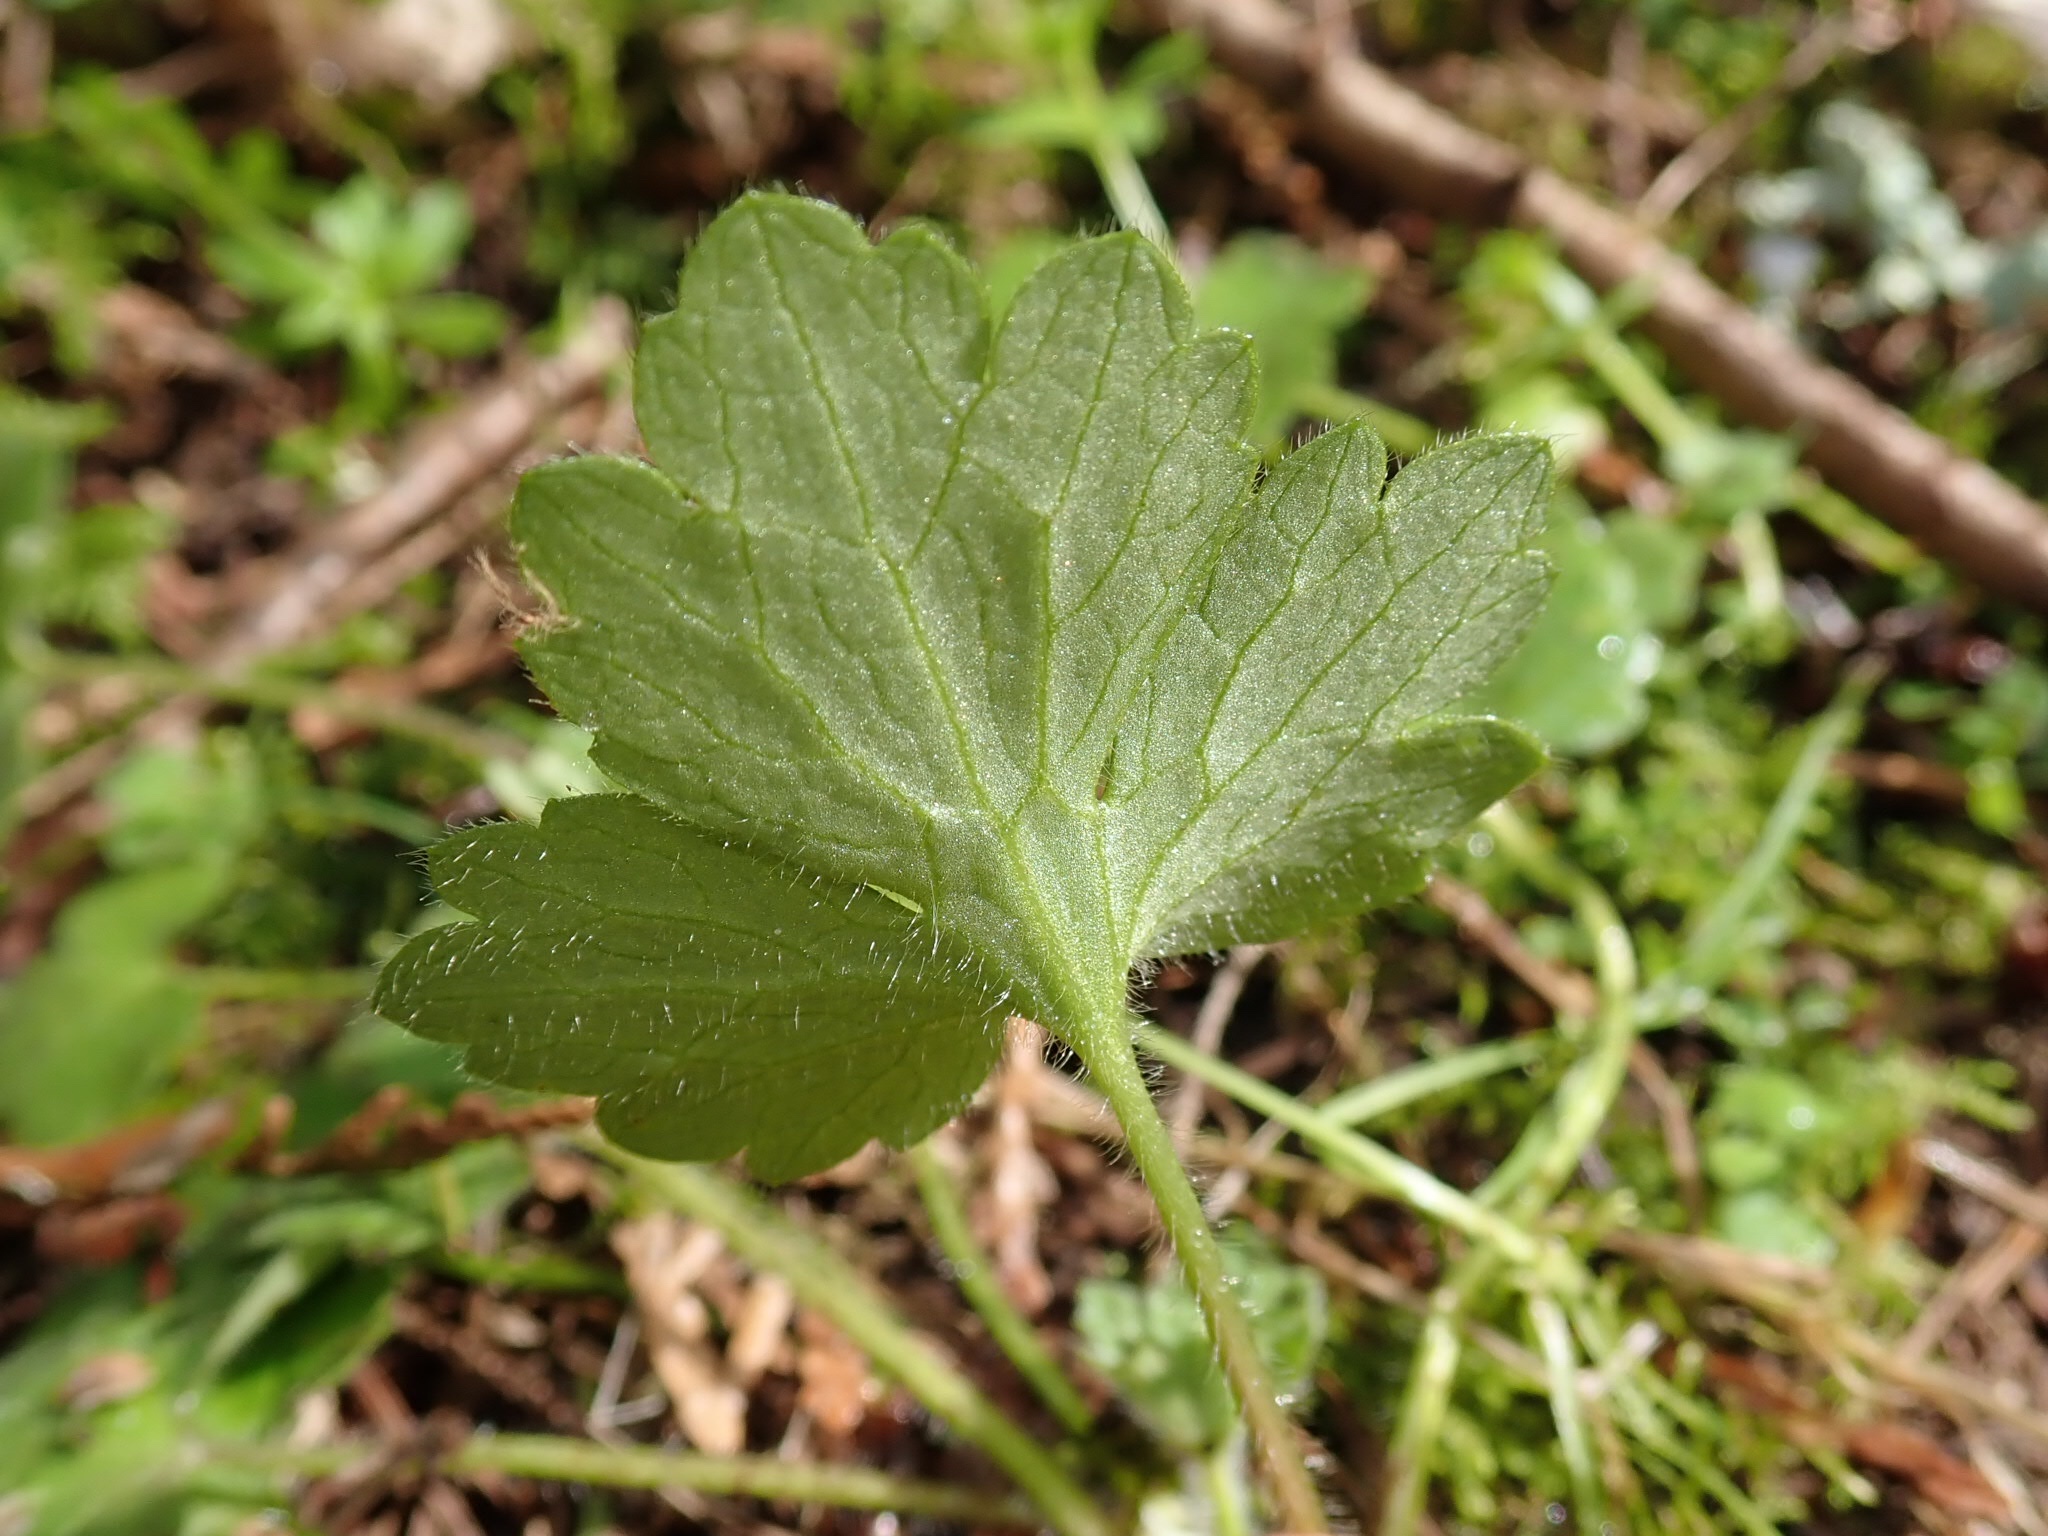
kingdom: Plantae
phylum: Tracheophyta
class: Magnoliopsida
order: Ranunculales
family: Ranunculaceae
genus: Ranunculus
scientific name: Ranunculus uncinatus
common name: Little buttercup
